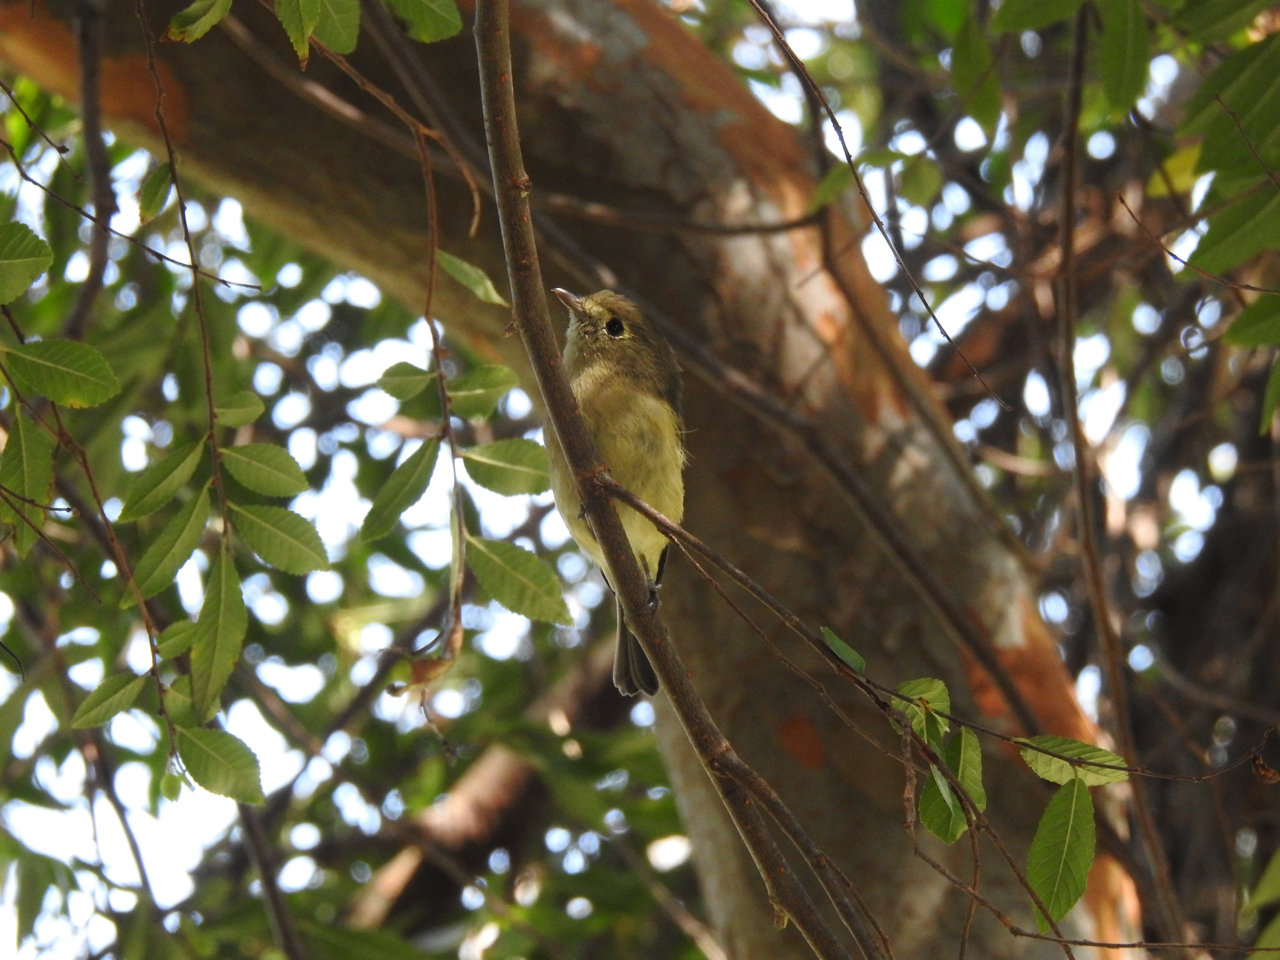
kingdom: Animalia
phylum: Chordata
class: Aves
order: Passeriformes
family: Vireonidae
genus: Vireo
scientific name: Vireo huttoni
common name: Hutton's vireo
